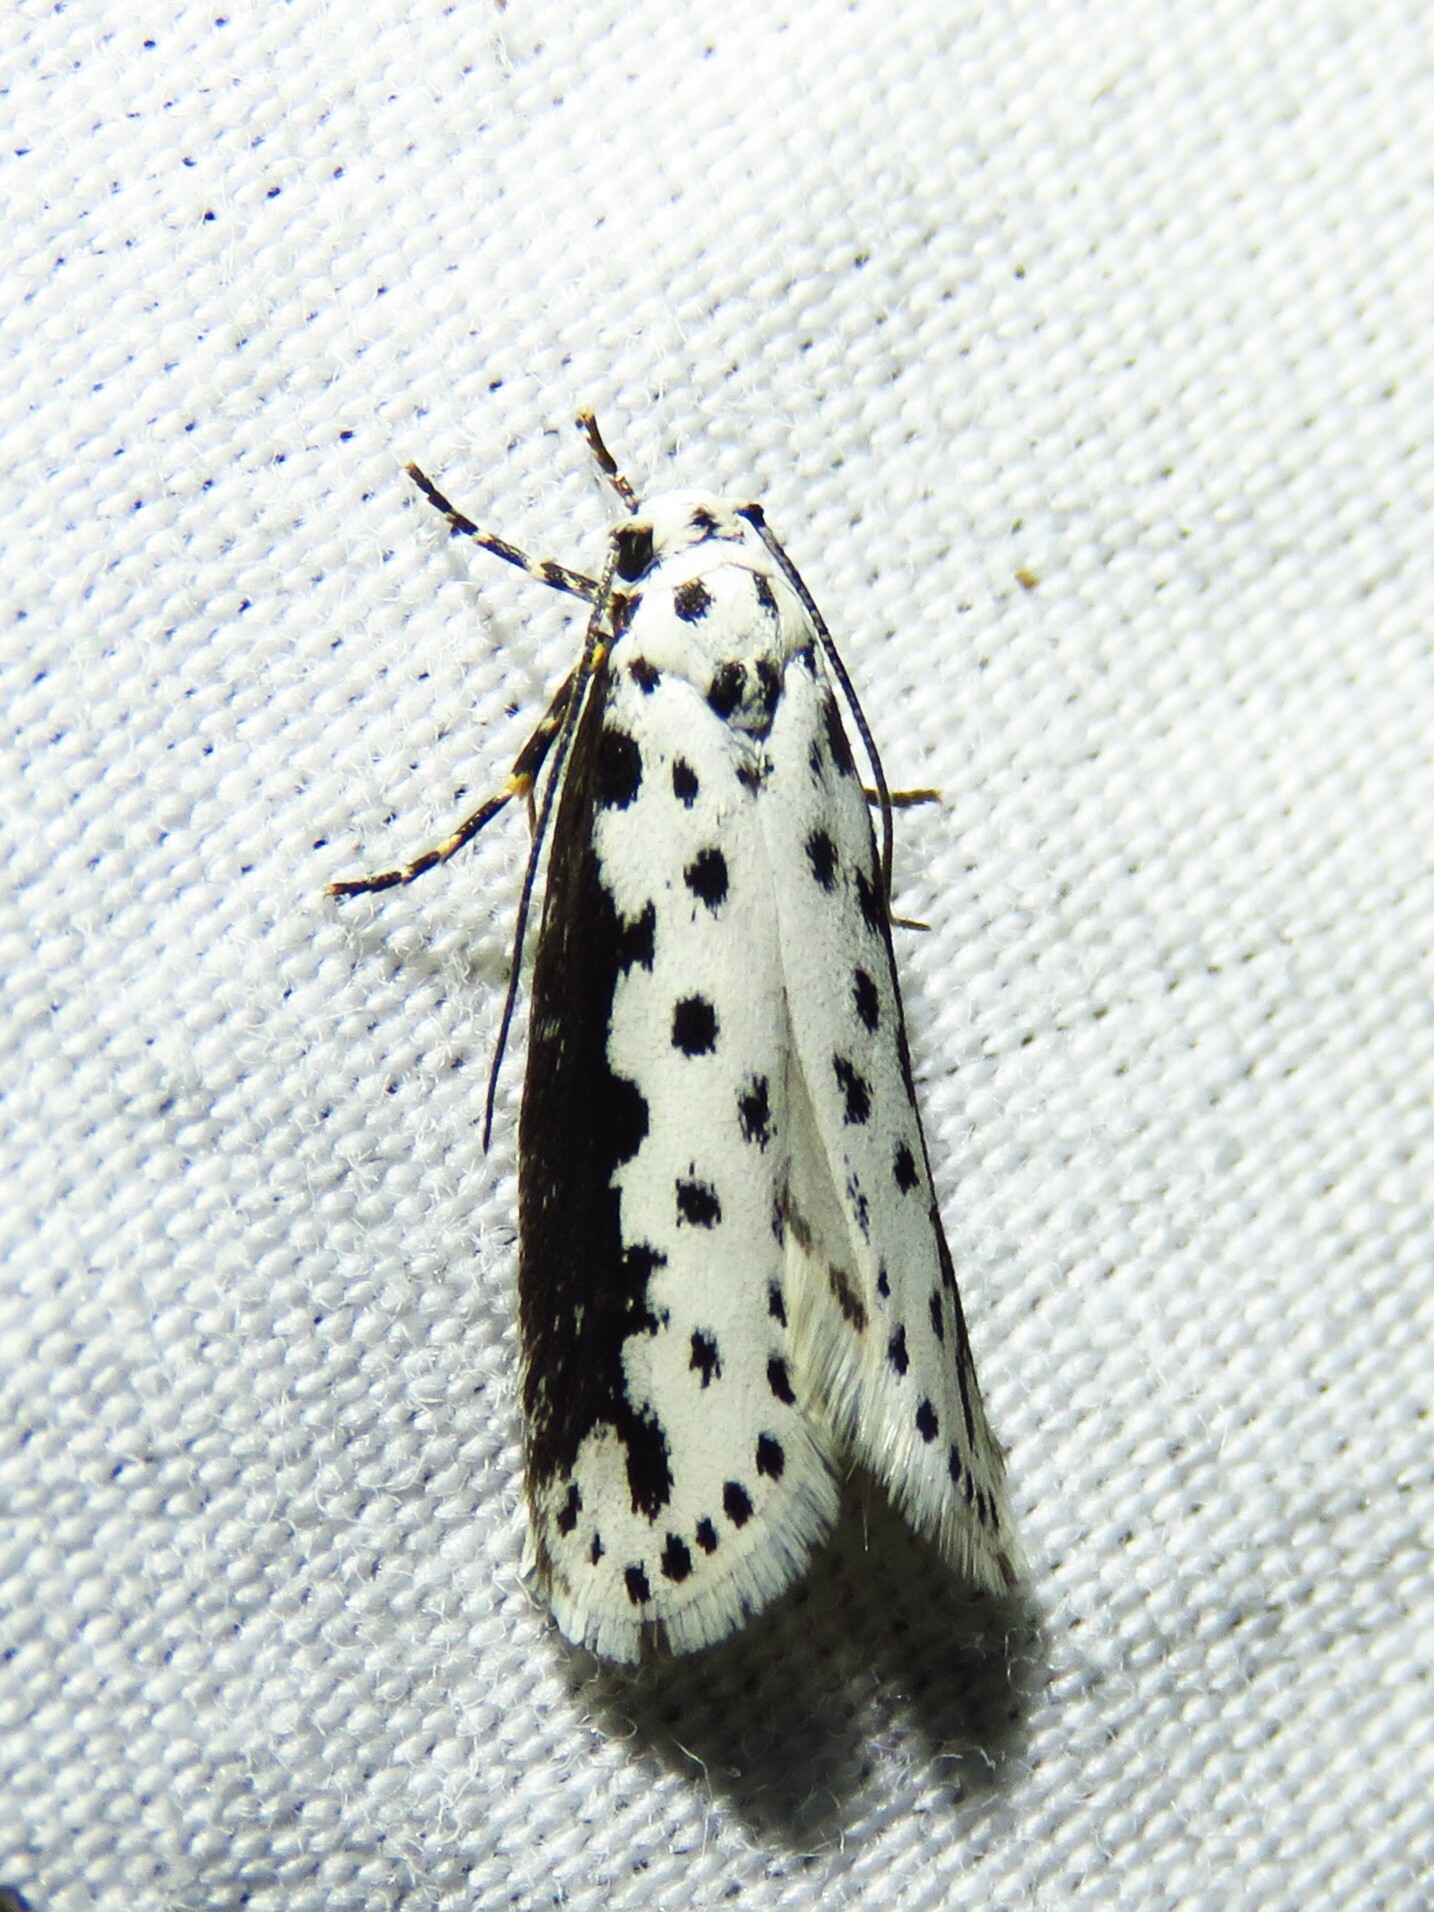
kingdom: Animalia
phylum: Arthropoda
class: Insecta
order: Lepidoptera
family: Ethmiidae
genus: Ethmia
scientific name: Ethmia hagenella
